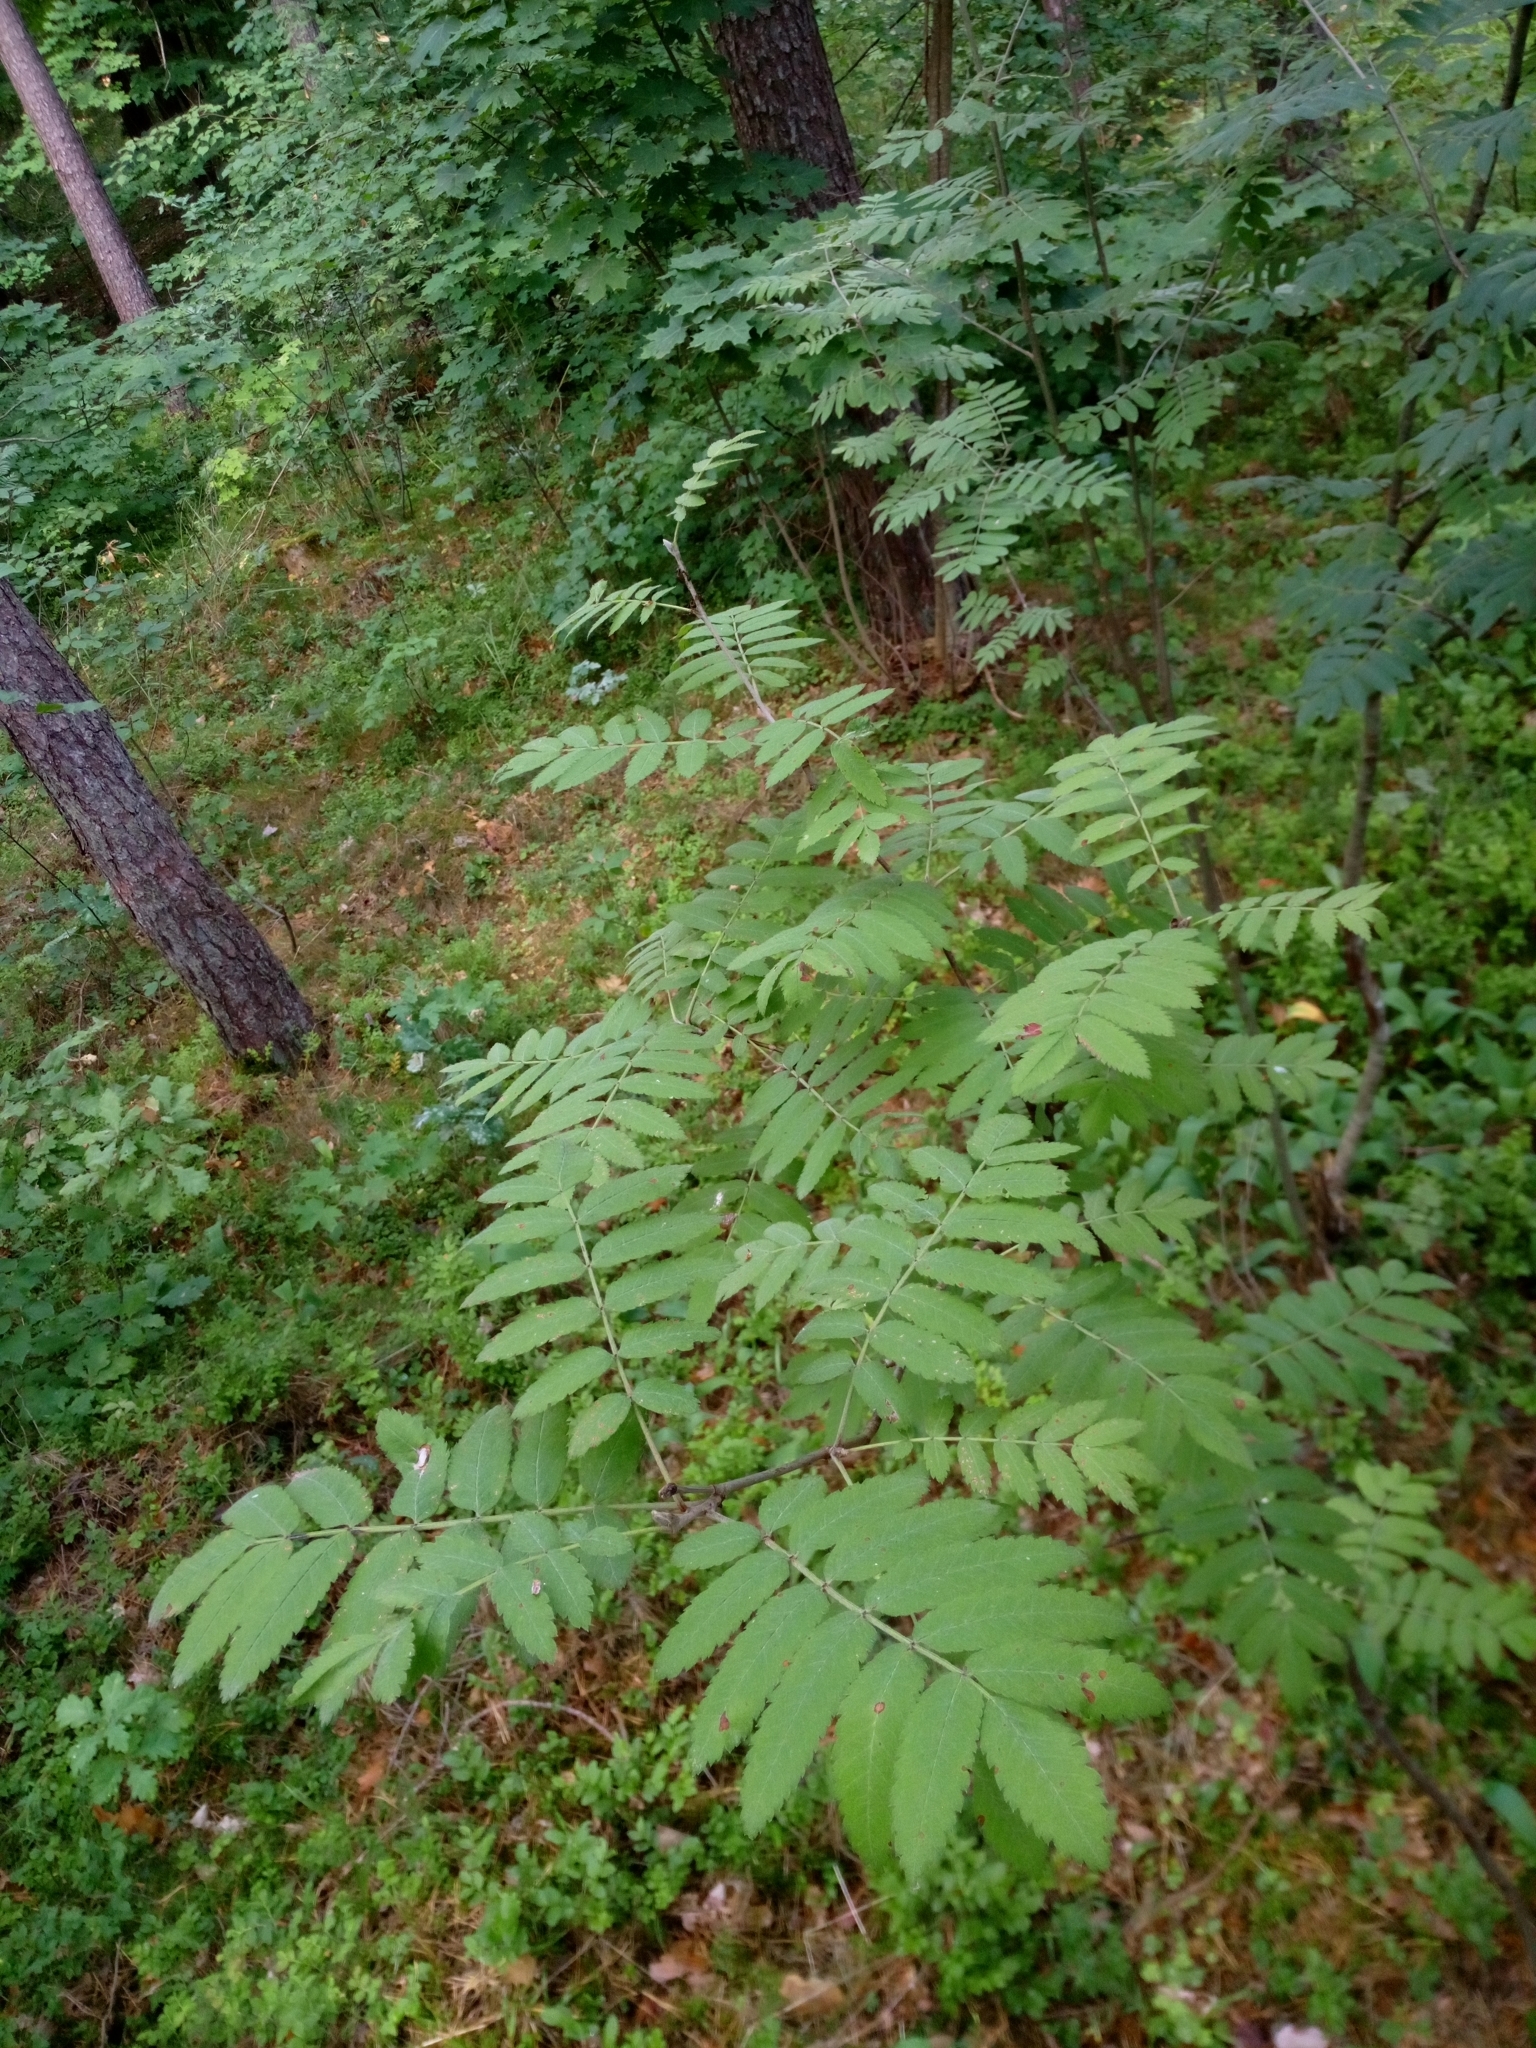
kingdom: Plantae
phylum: Tracheophyta
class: Magnoliopsida
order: Rosales
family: Rosaceae
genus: Sorbus
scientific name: Sorbus aucuparia
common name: Rowan
